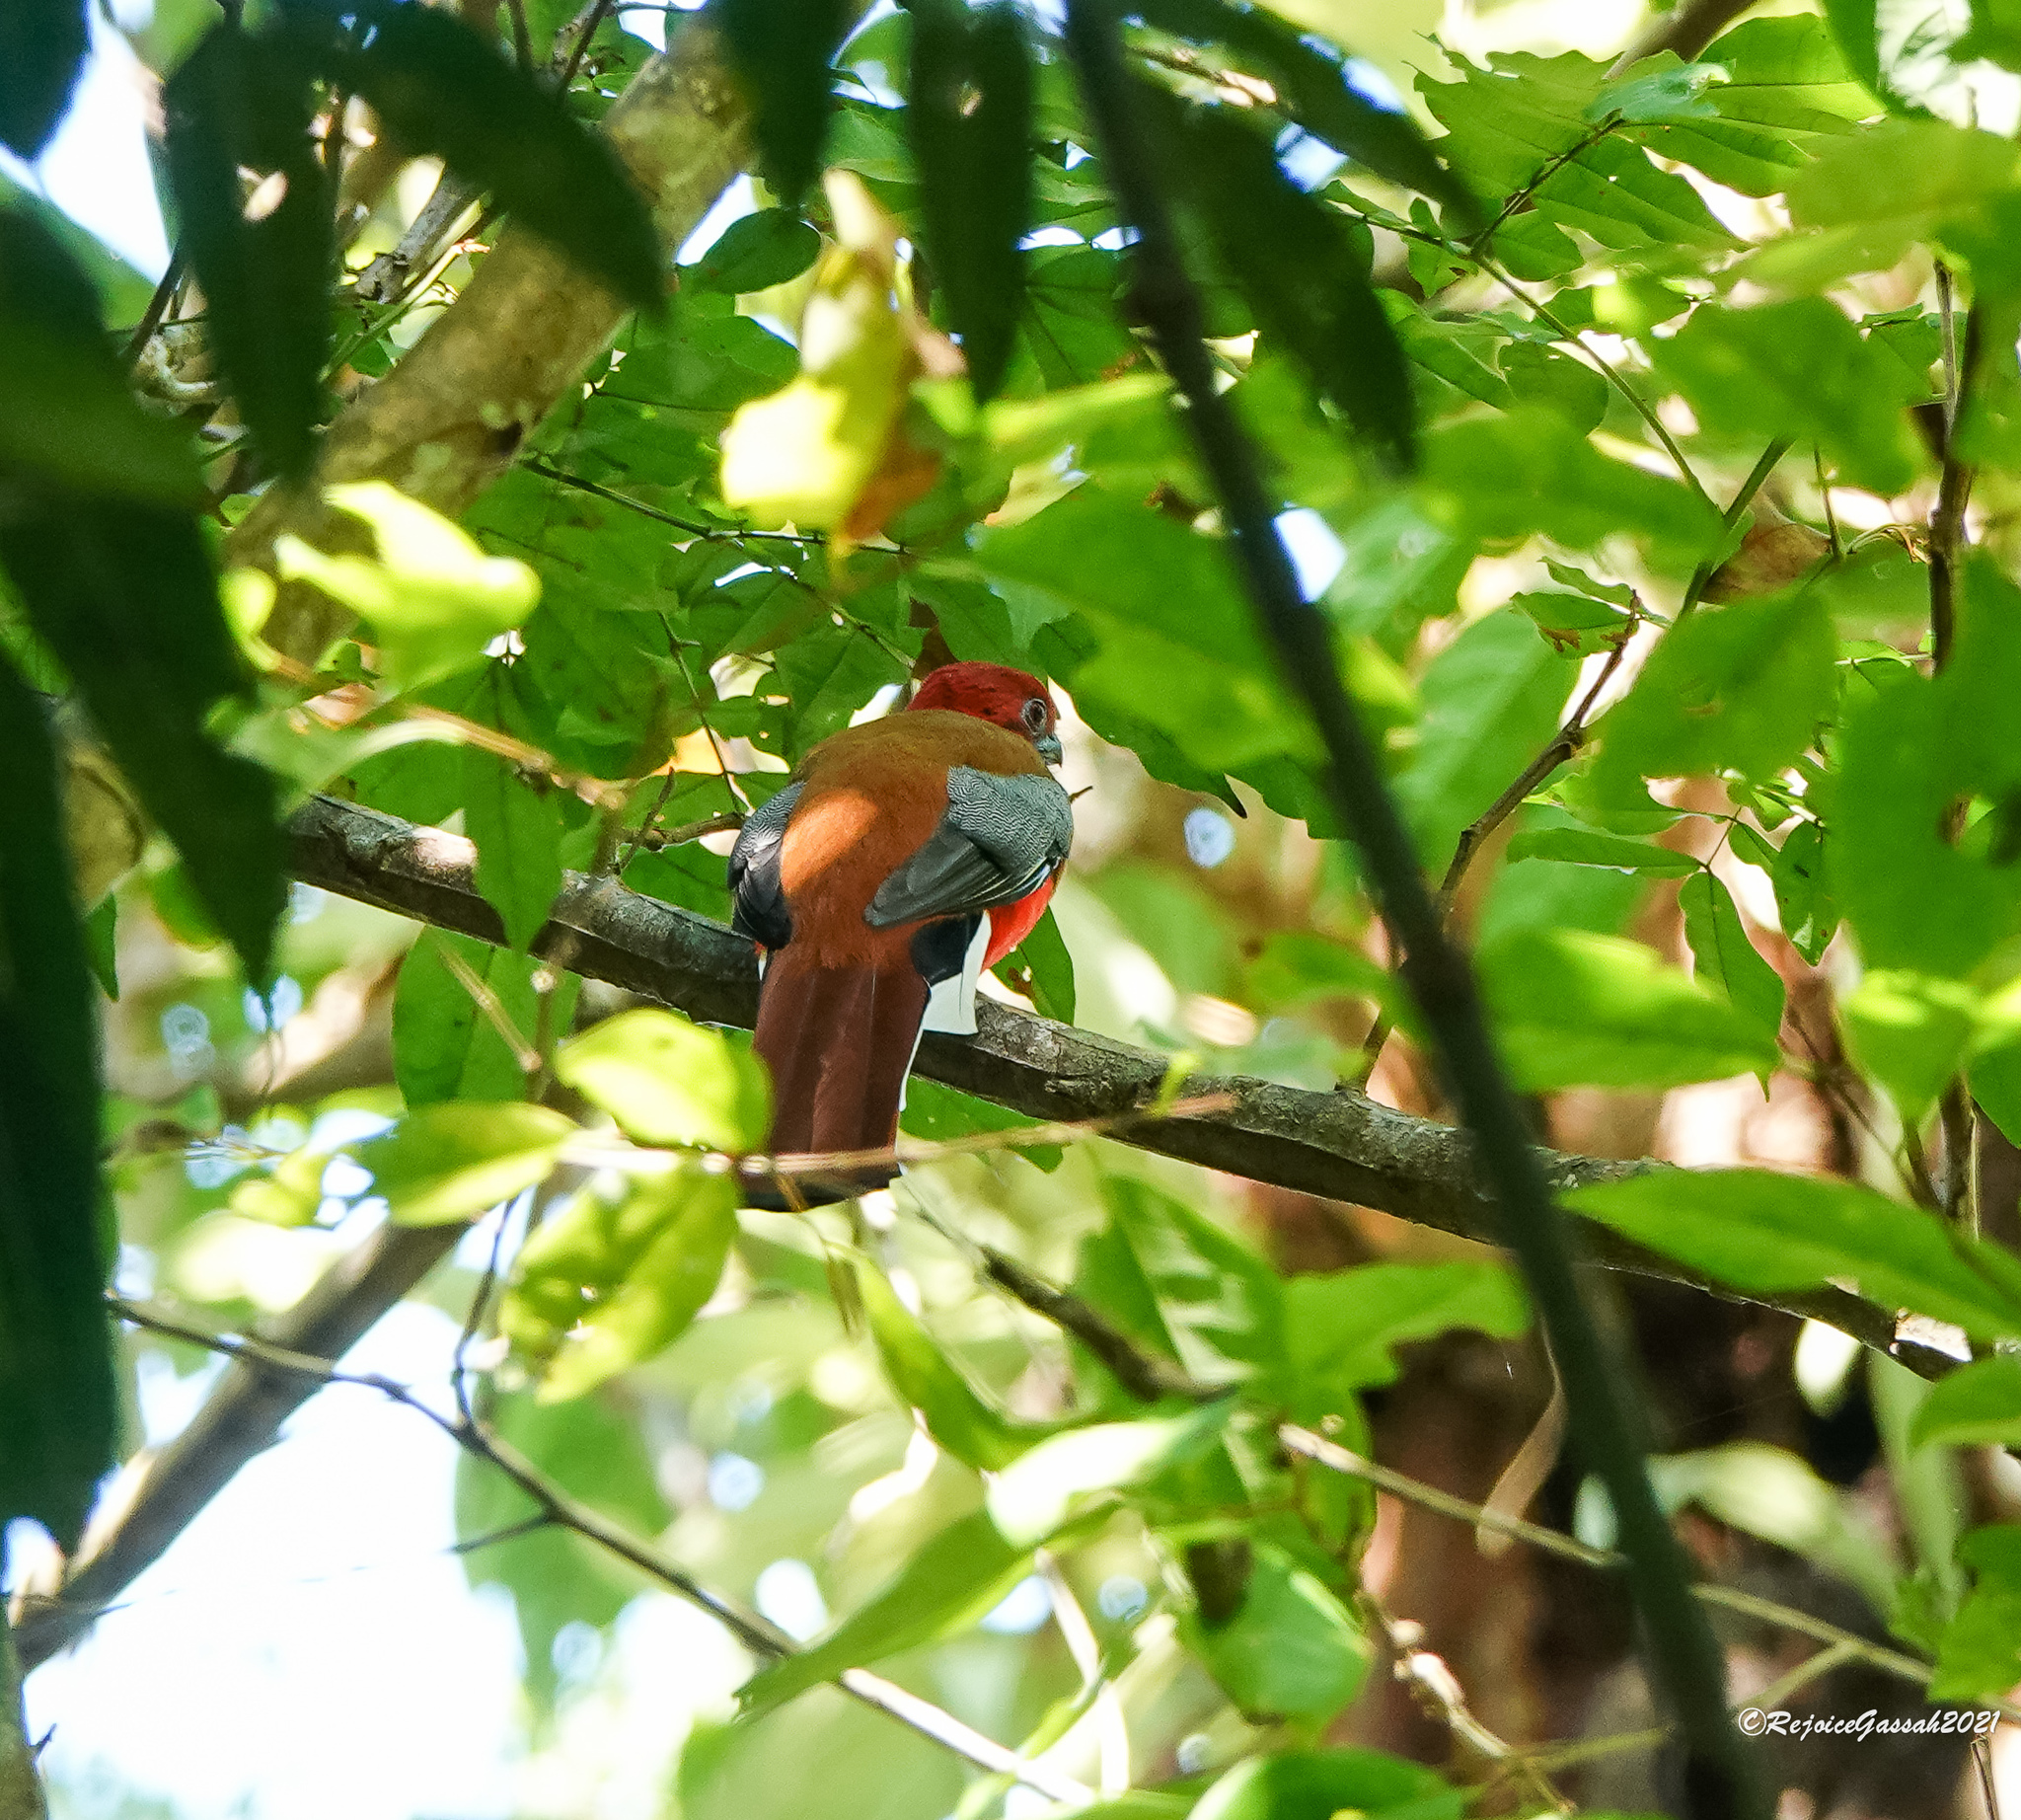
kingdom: Animalia
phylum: Chordata
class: Aves
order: Trogoniformes
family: Trogonidae
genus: Harpactes
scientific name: Harpactes erythrocephalus
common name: Red-headed trogon
